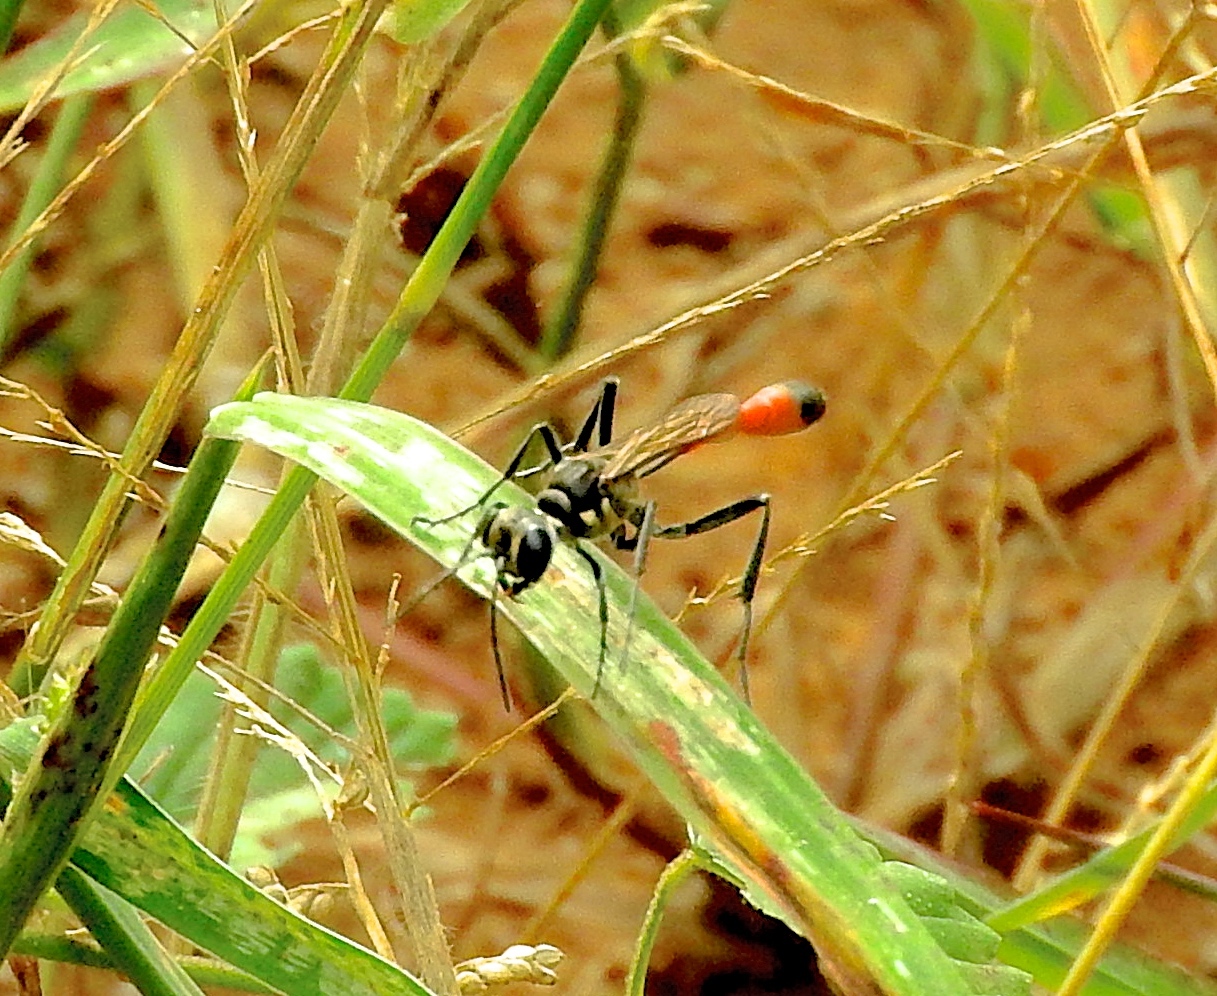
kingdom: Animalia
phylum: Arthropoda
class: Insecta
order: Hymenoptera
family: Sphecidae
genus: Ammophila
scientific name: Ammophila
